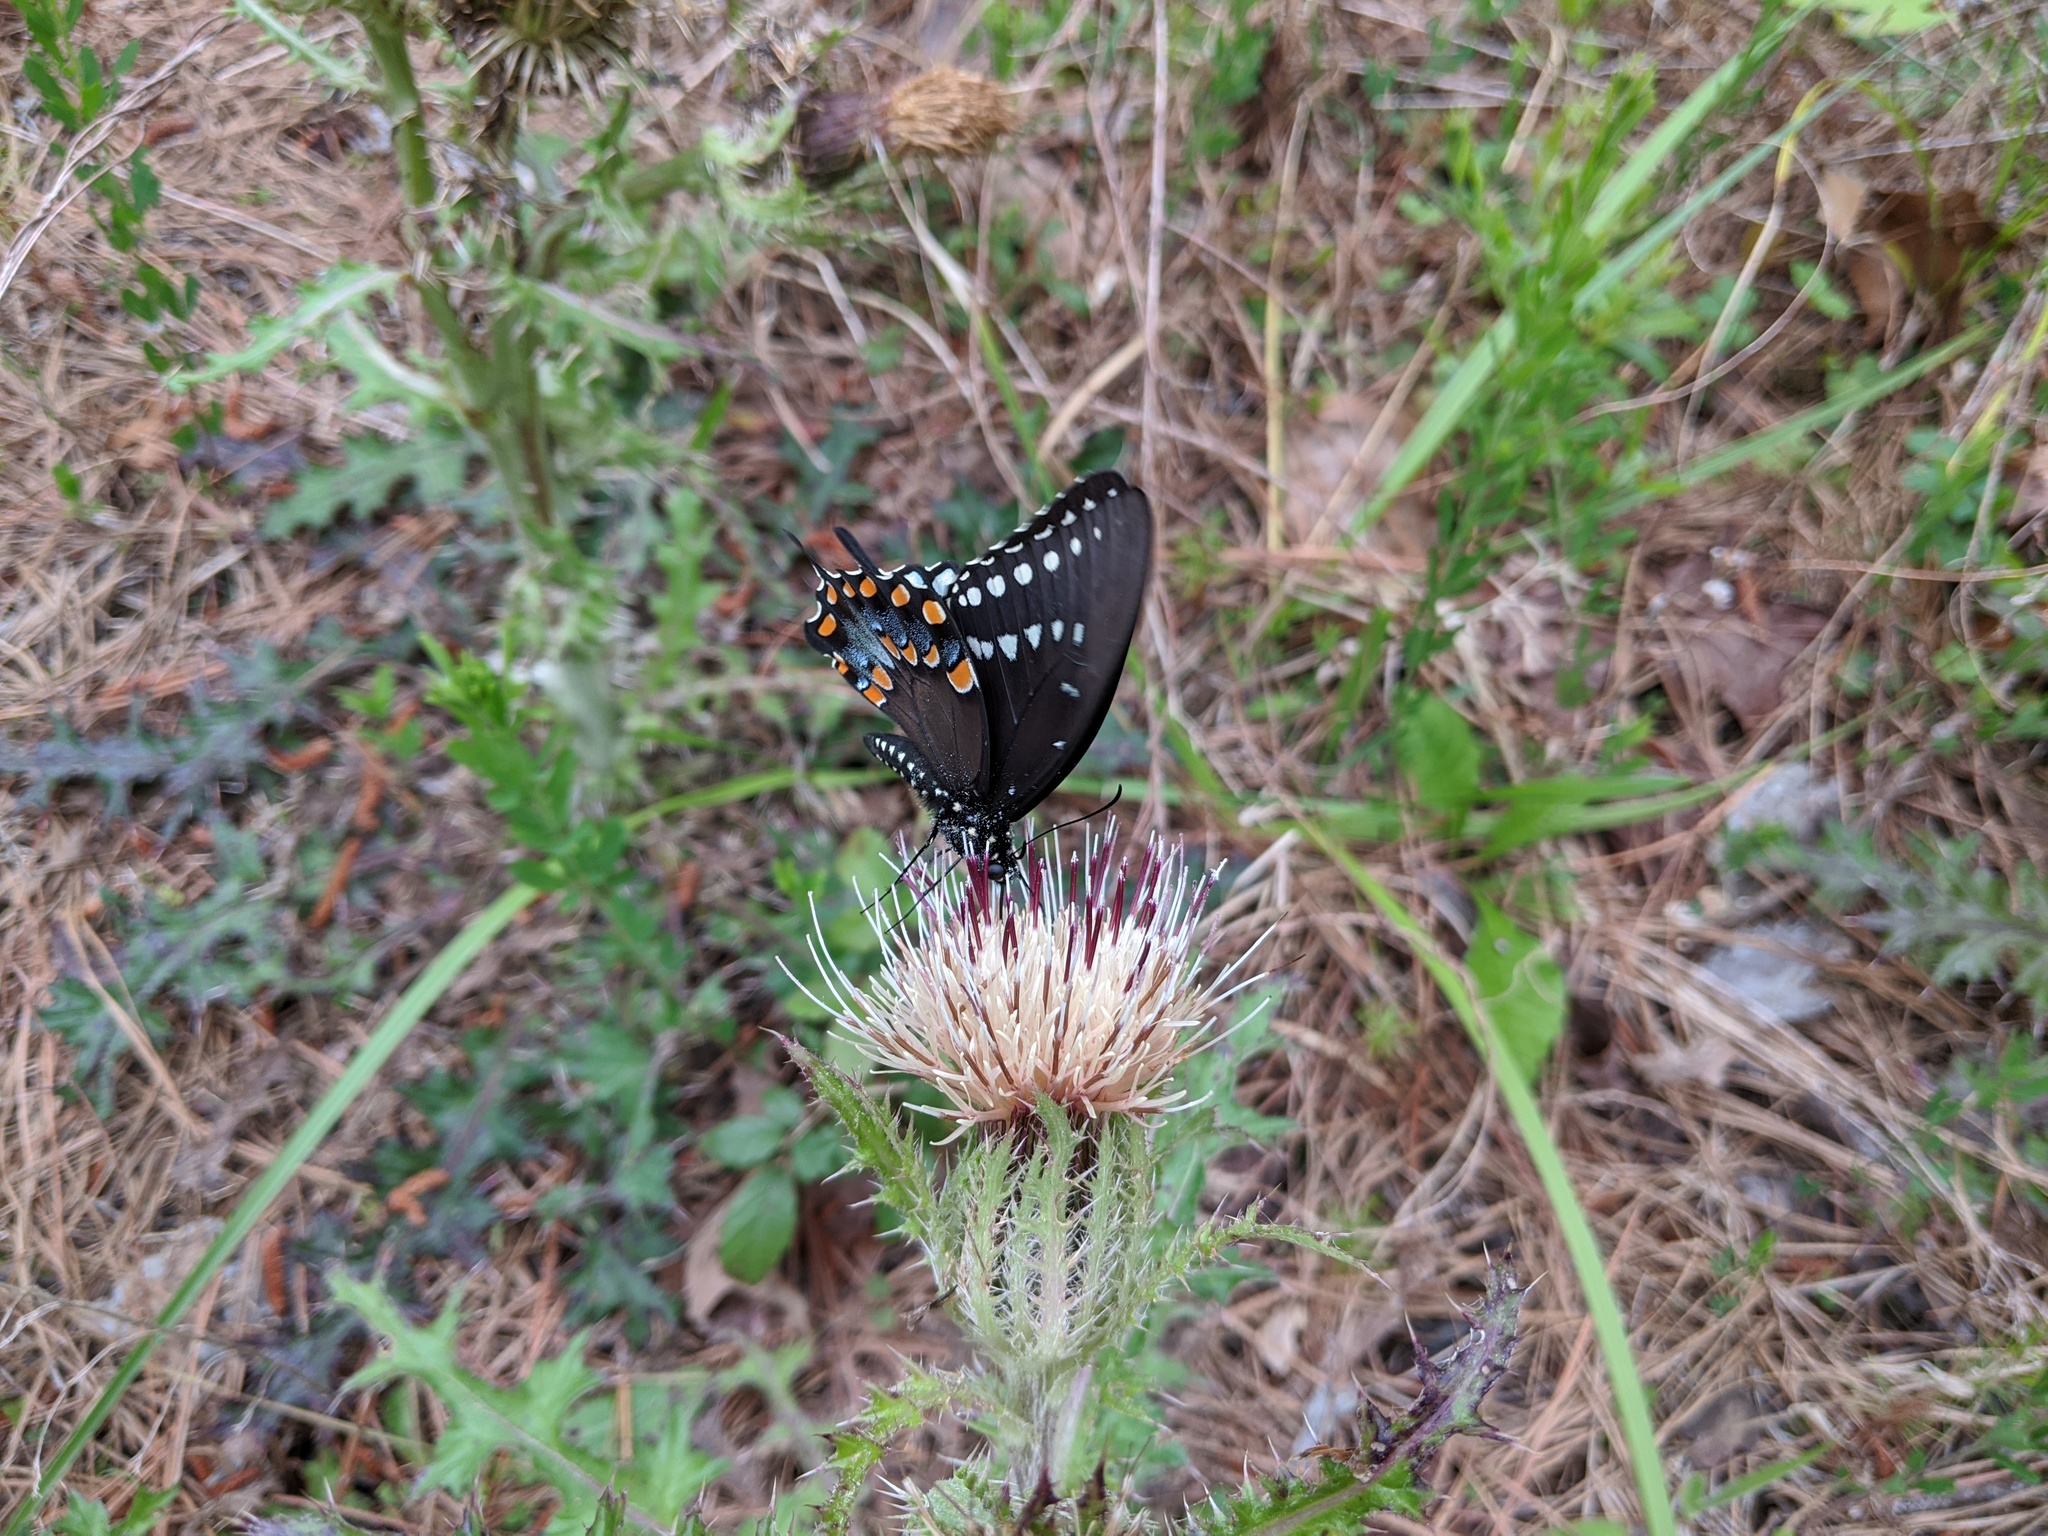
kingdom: Animalia
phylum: Arthropoda
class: Insecta
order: Lepidoptera
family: Papilionidae
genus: Papilio
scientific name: Papilio troilus
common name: Spicebush swallowtail
